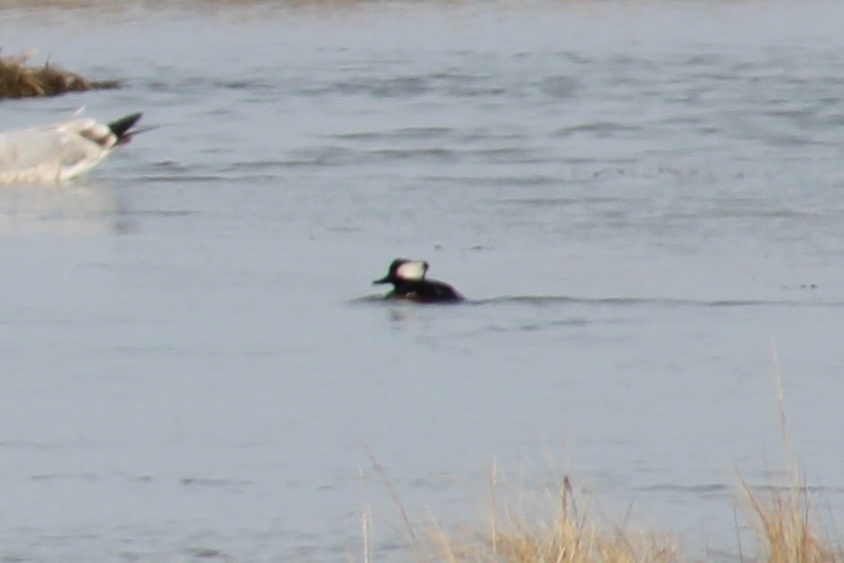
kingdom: Animalia
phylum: Chordata
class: Aves
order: Anseriformes
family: Anatidae
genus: Lophodytes
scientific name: Lophodytes cucullatus
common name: Hooded merganser
